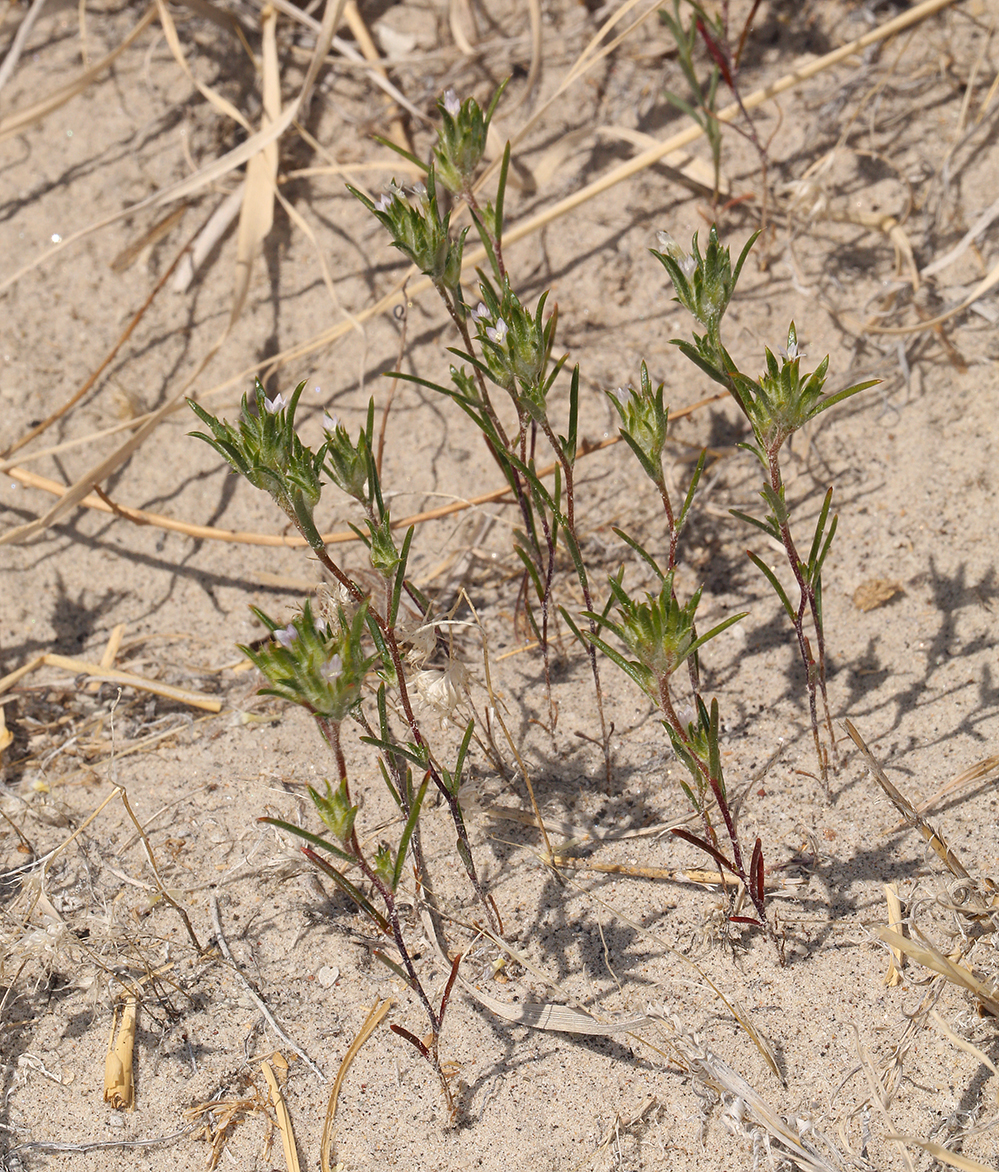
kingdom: Plantae
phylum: Tracheophyta
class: Magnoliopsida
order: Ericales
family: Polemoniaceae
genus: Eriastrum
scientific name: Eriastrum rosamondense
